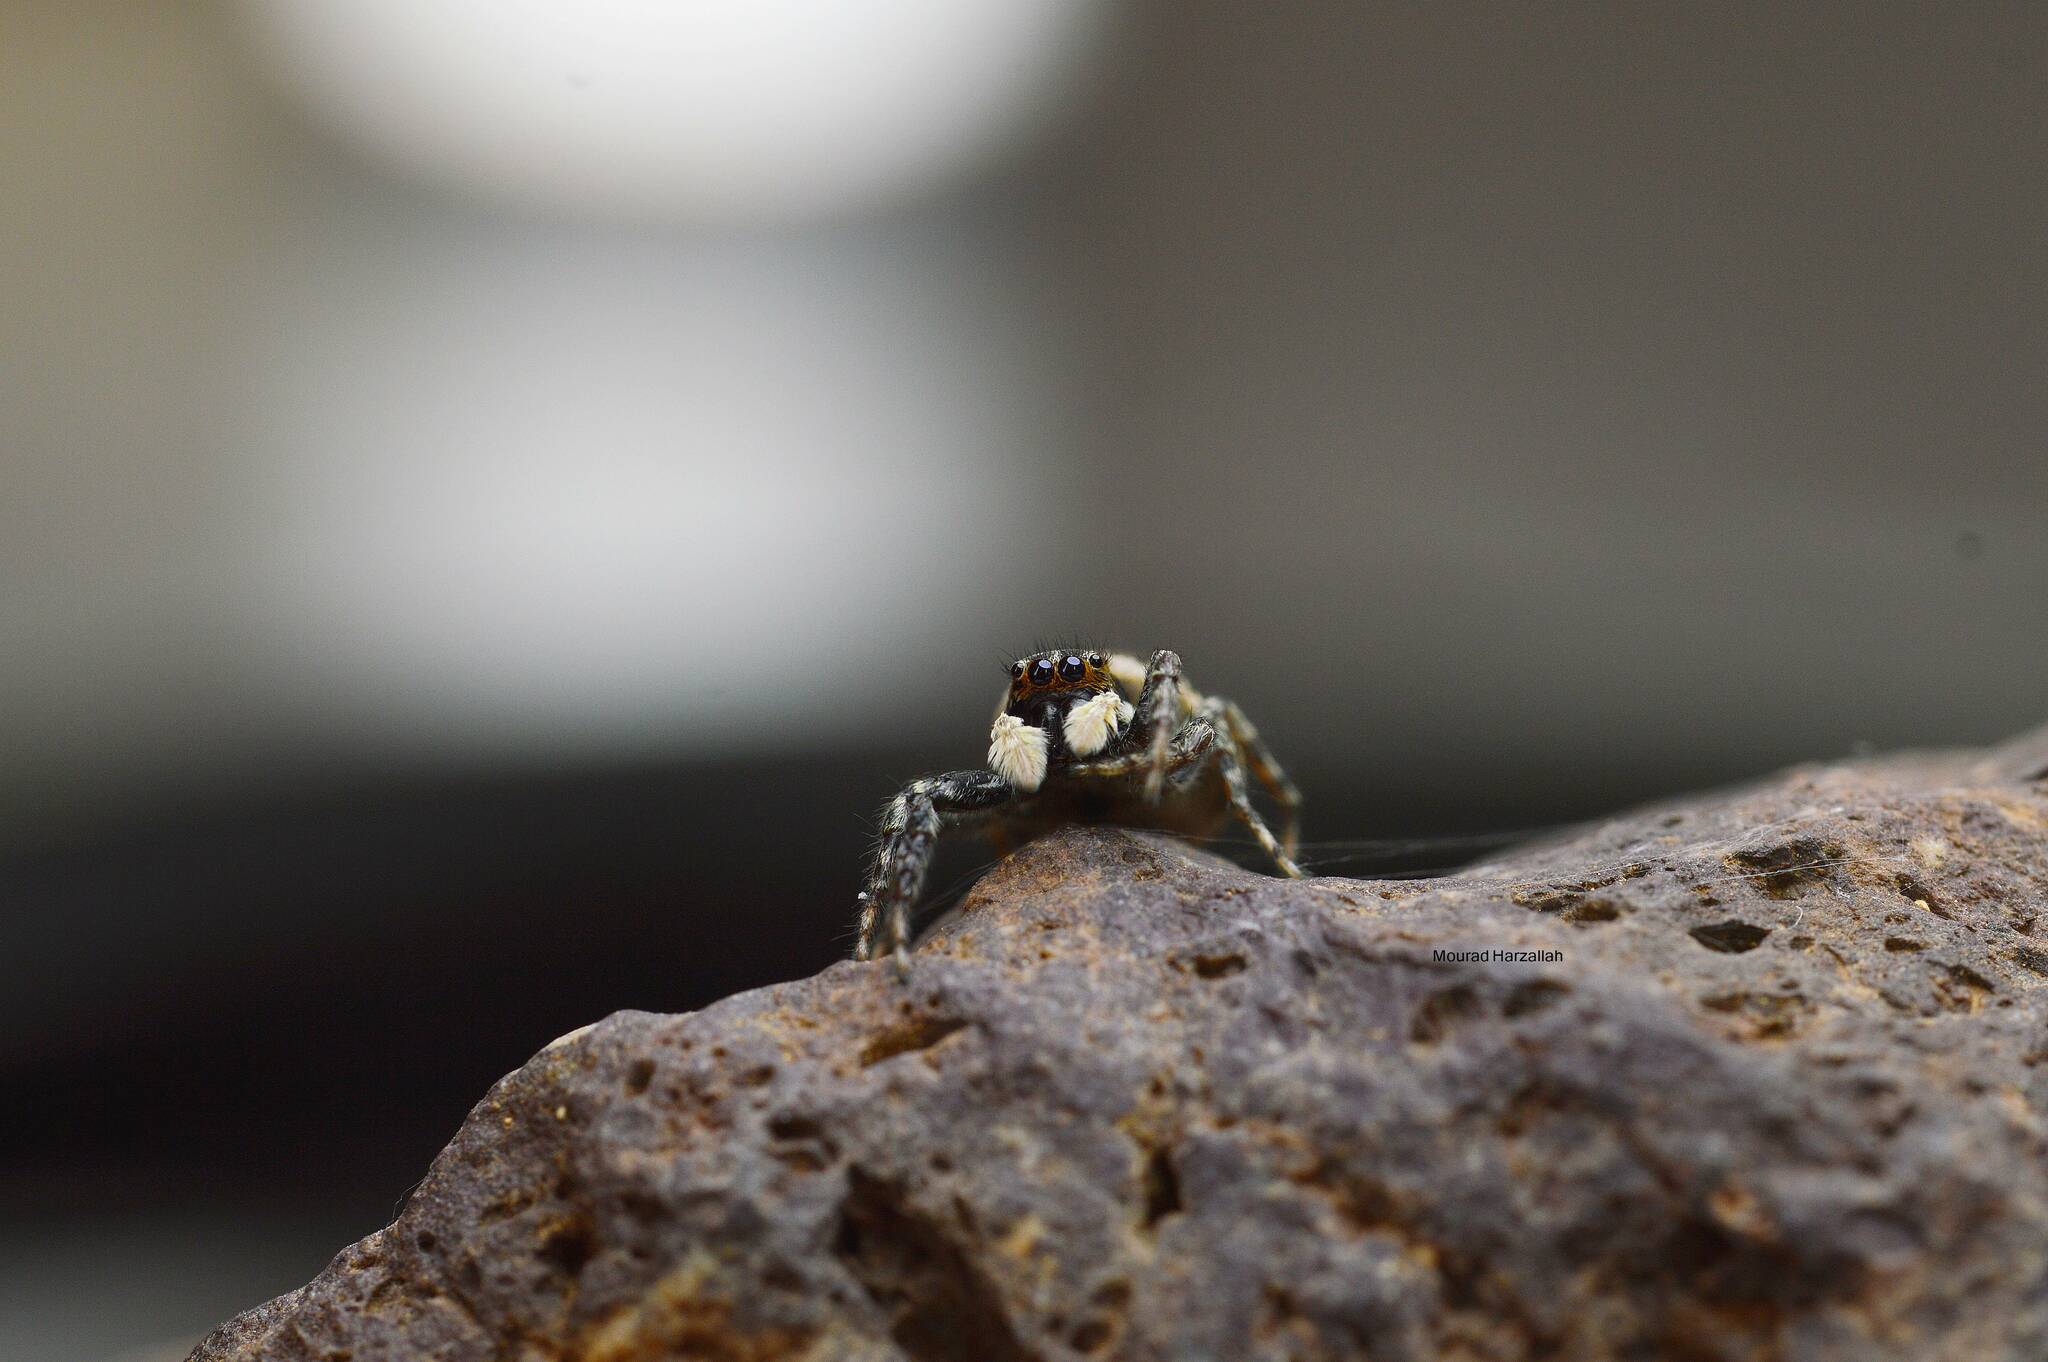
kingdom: Animalia
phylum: Arthropoda
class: Arachnida
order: Araneae
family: Salticidae
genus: Menemerus
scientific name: Menemerus semilimbatus
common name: Jumping spider
